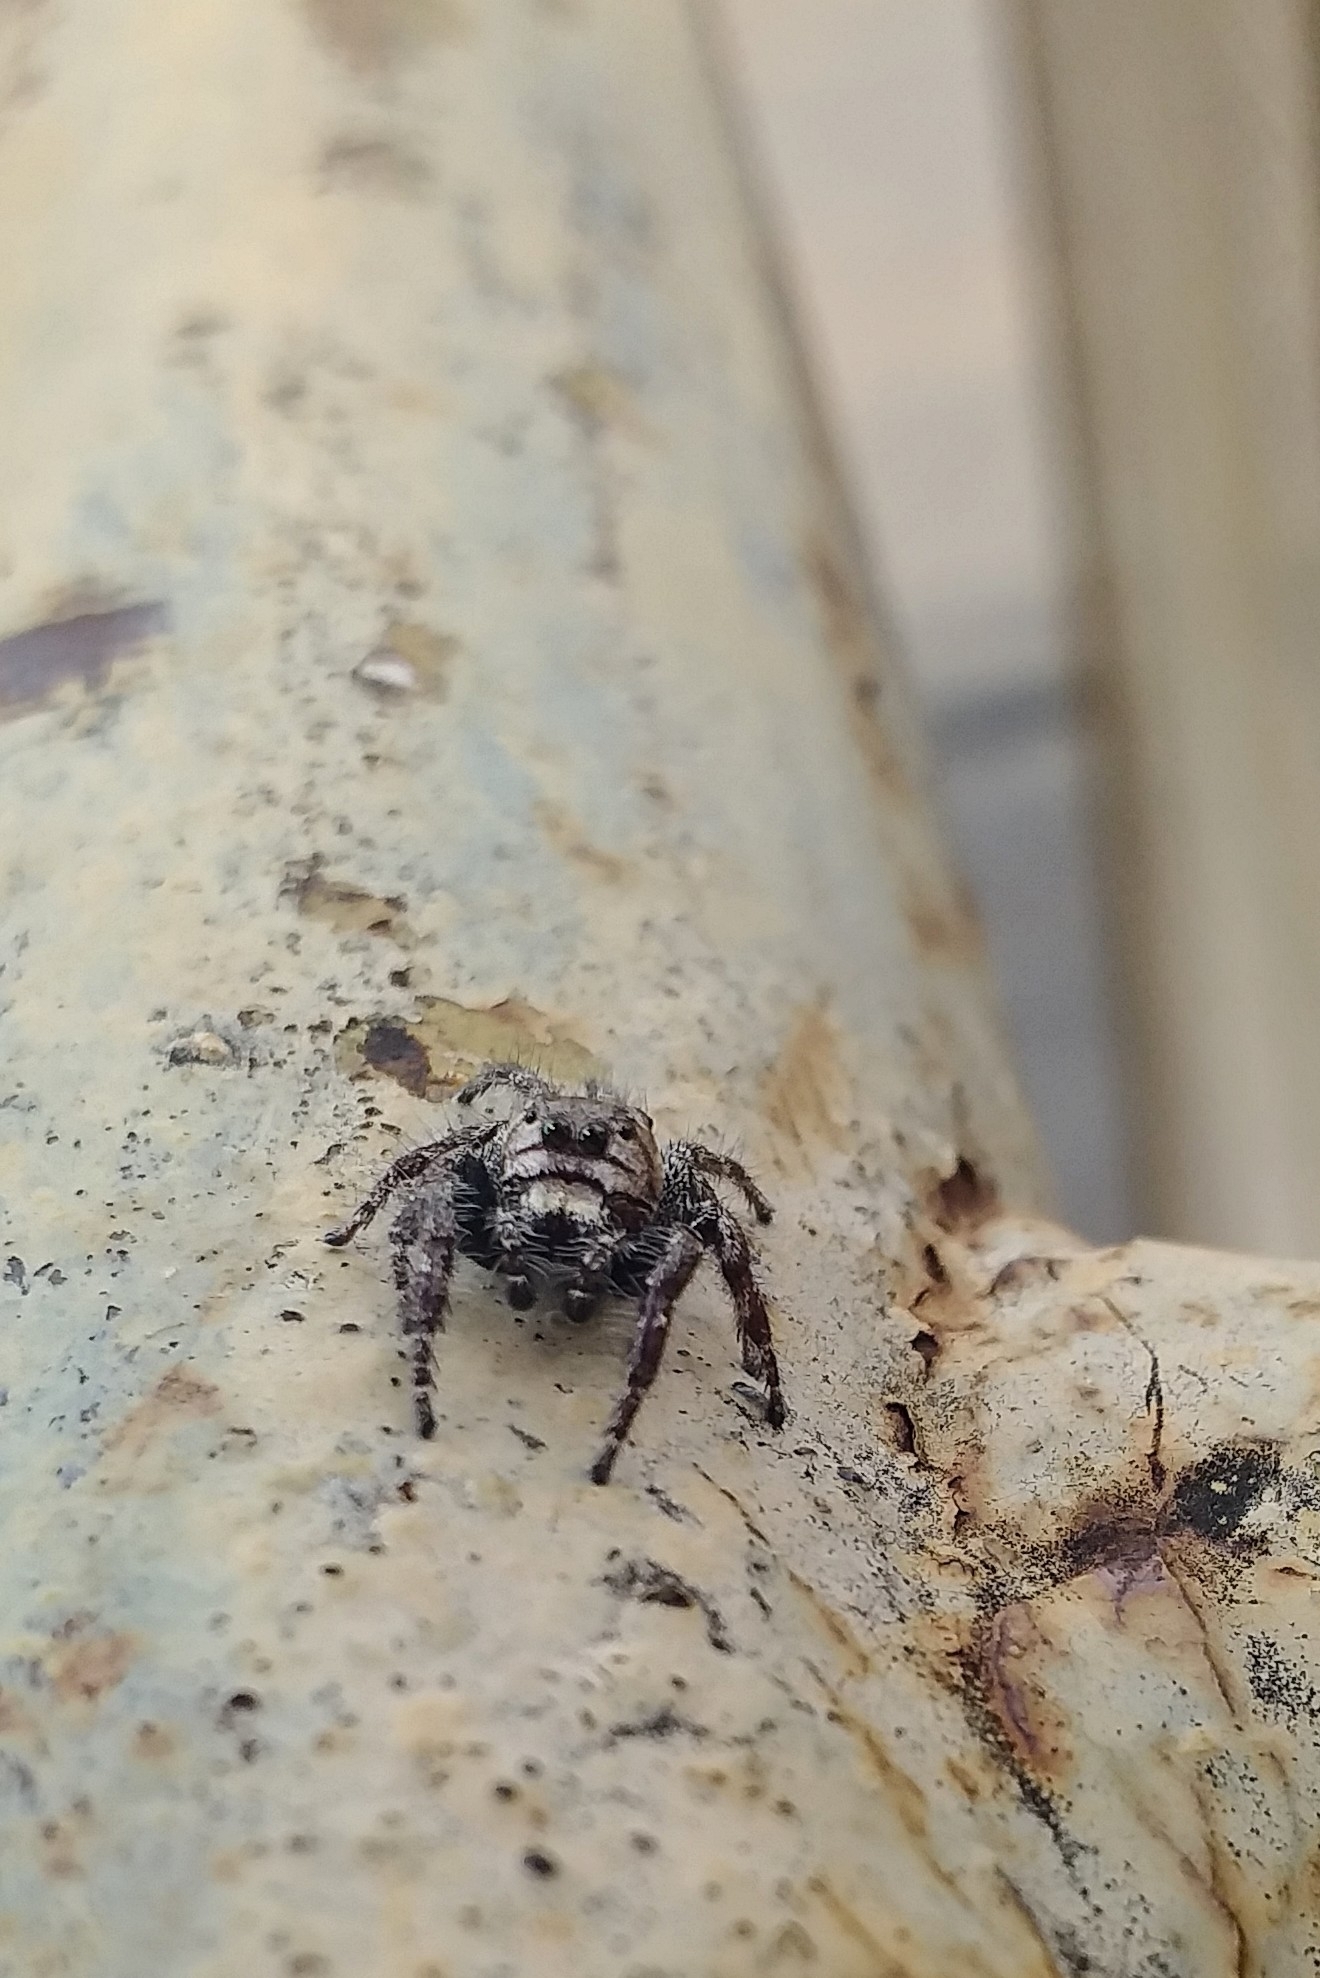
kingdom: Animalia
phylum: Arthropoda
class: Arachnida
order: Araneae
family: Salticidae
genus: Hyllus
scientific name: Hyllus semicupreus
